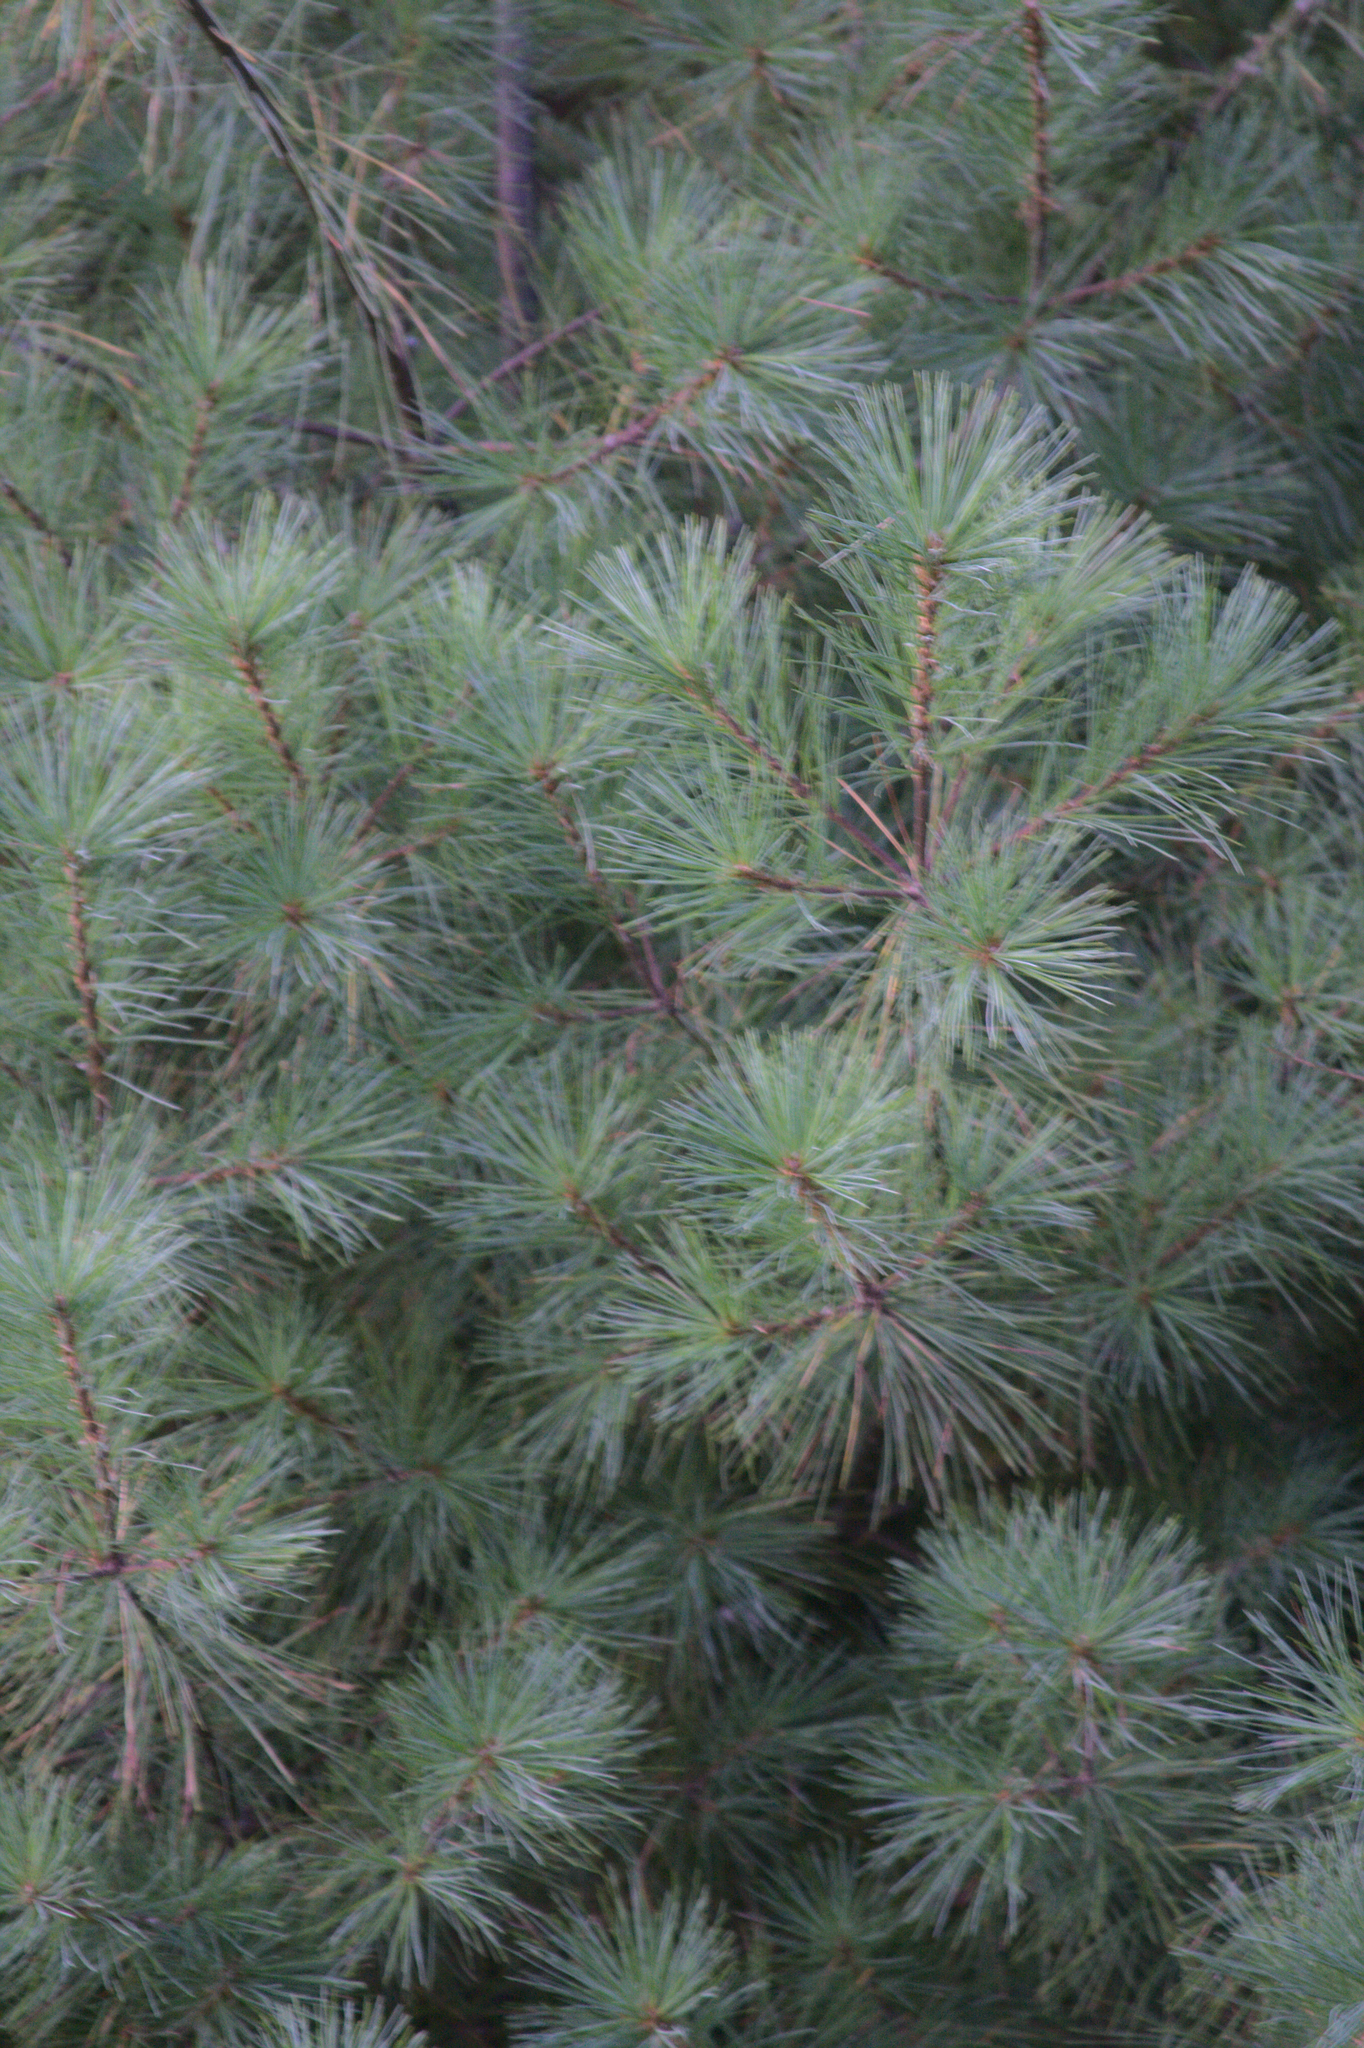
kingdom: Plantae
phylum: Tracheophyta
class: Pinopsida
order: Pinales
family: Pinaceae
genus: Pinus
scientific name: Pinus strobus
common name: Weymouth pine
